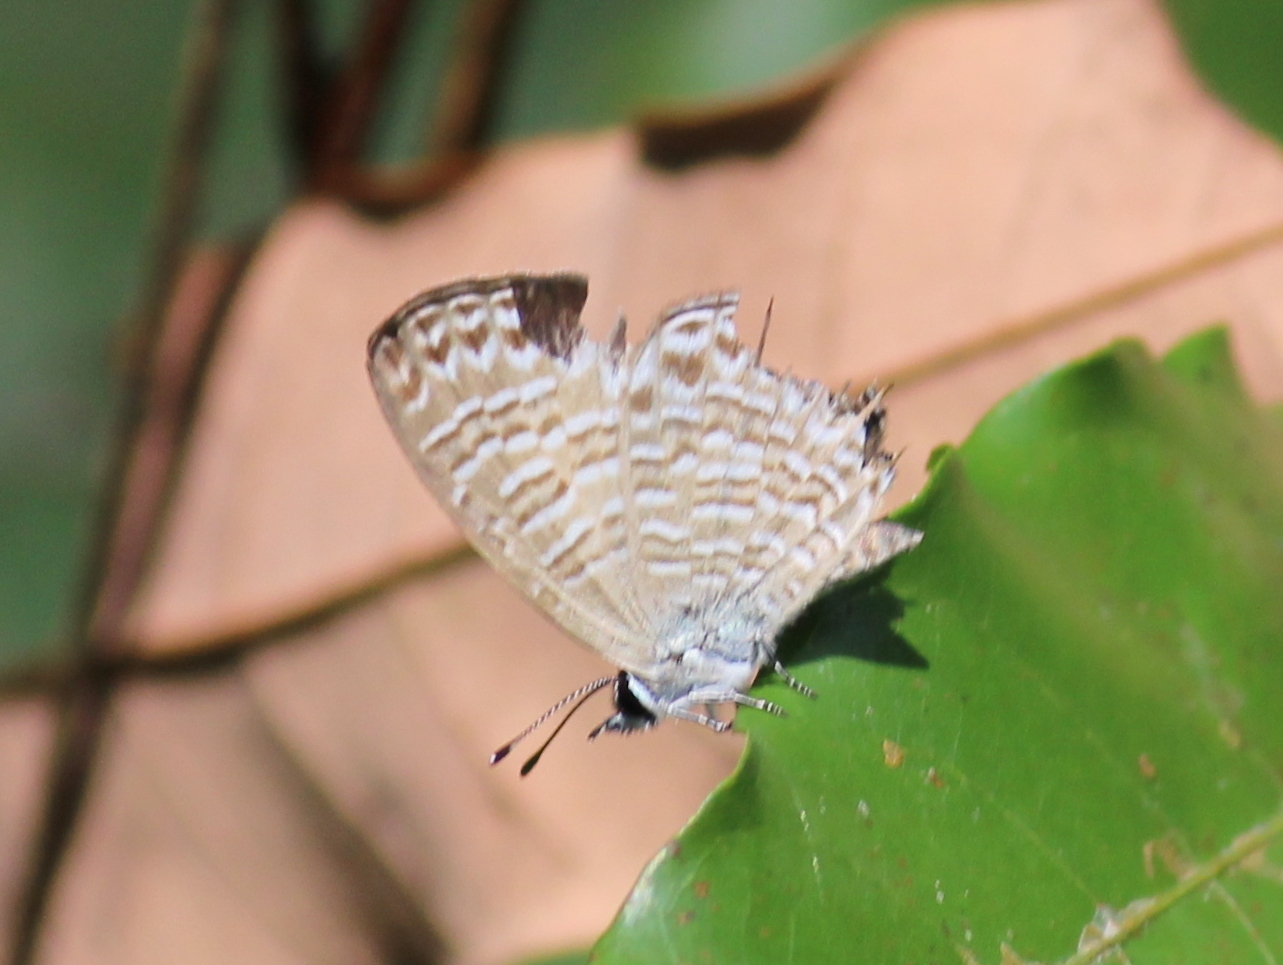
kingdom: Animalia
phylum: Arthropoda
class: Insecta
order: Lepidoptera
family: Lycaenidae
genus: Nacaduba
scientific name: Nacaduba kurava
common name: Transparent 6-line blue
